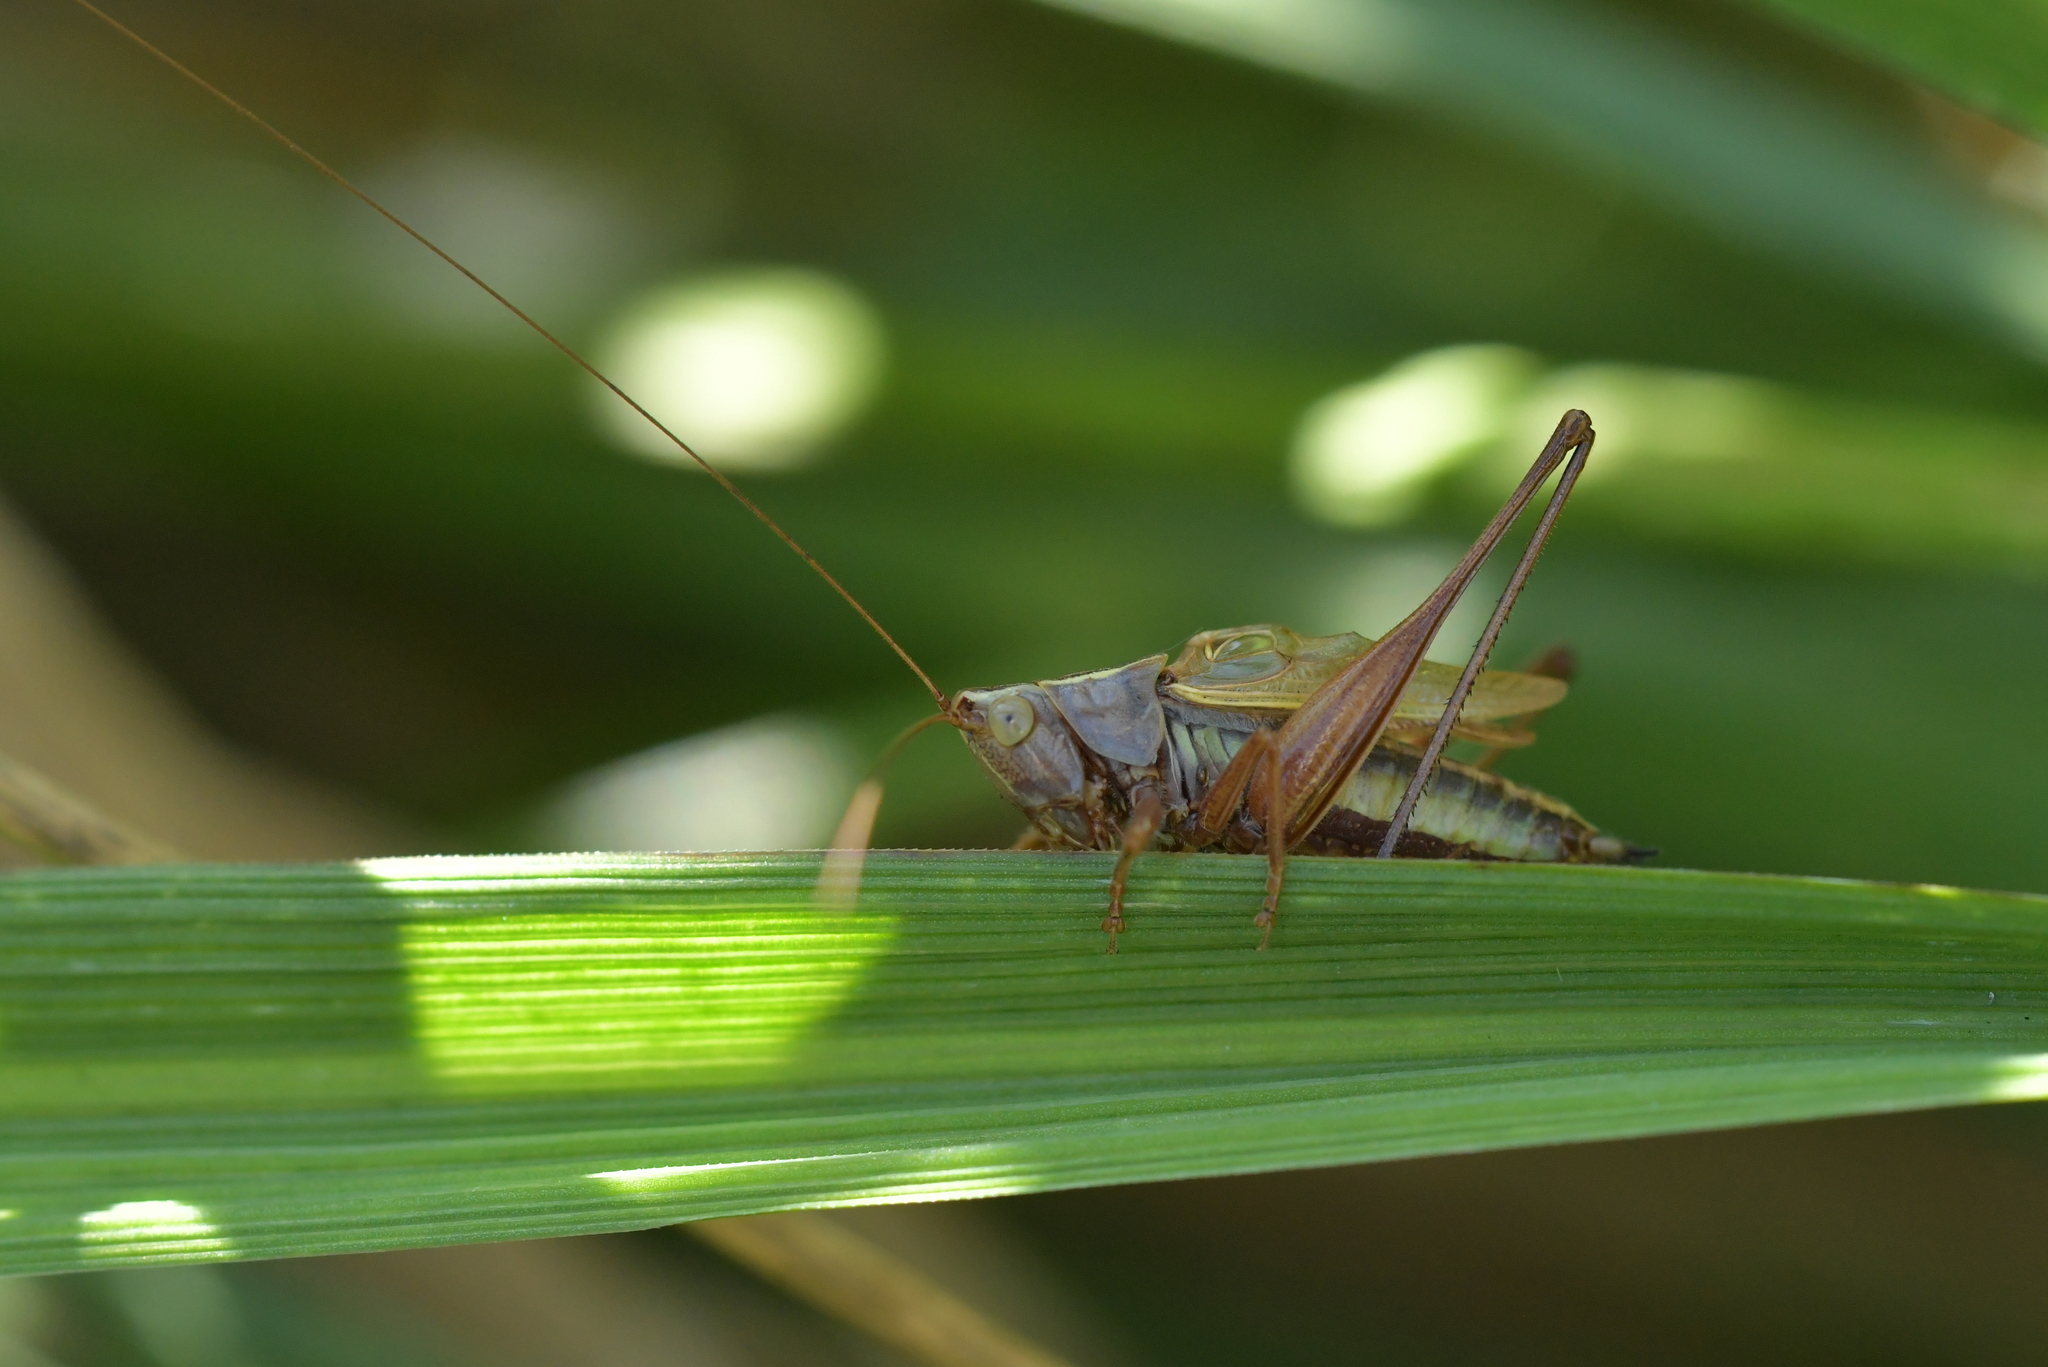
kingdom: Animalia
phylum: Arthropoda
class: Insecta
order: Orthoptera
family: Tettigoniidae
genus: Conocephalus
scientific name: Conocephalus albescens
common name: Whitish meadow katydid
